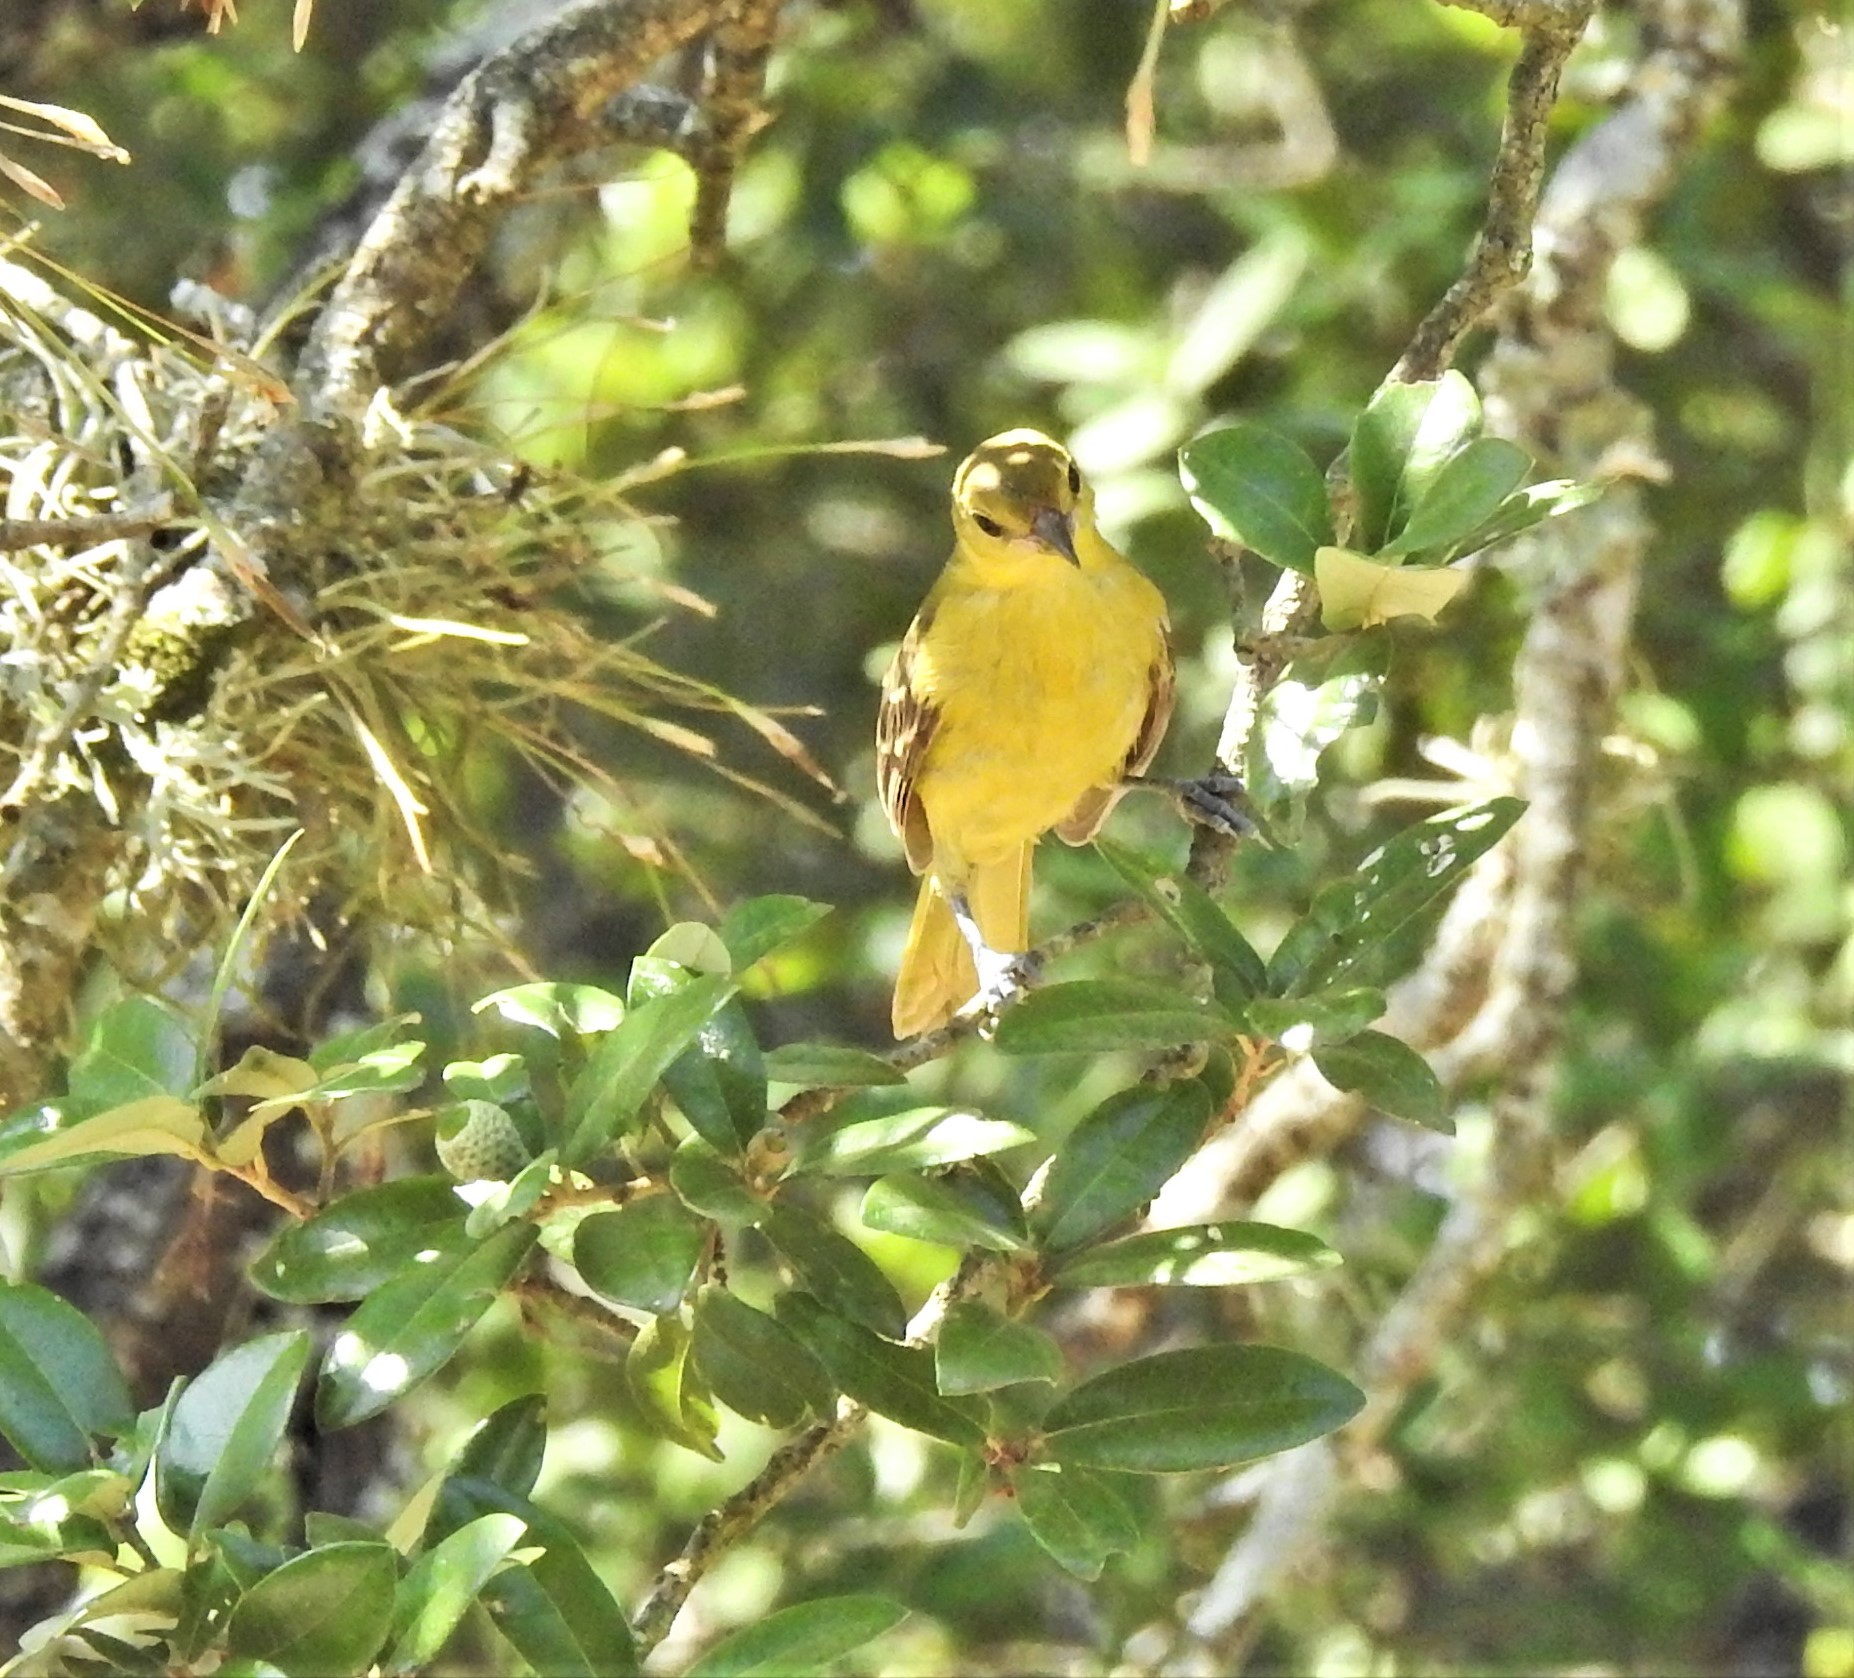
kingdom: Animalia
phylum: Chordata
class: Aves
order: Passeriformes
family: Icteridae
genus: Icterus
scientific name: Icterus spurius
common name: Orchard oriole
